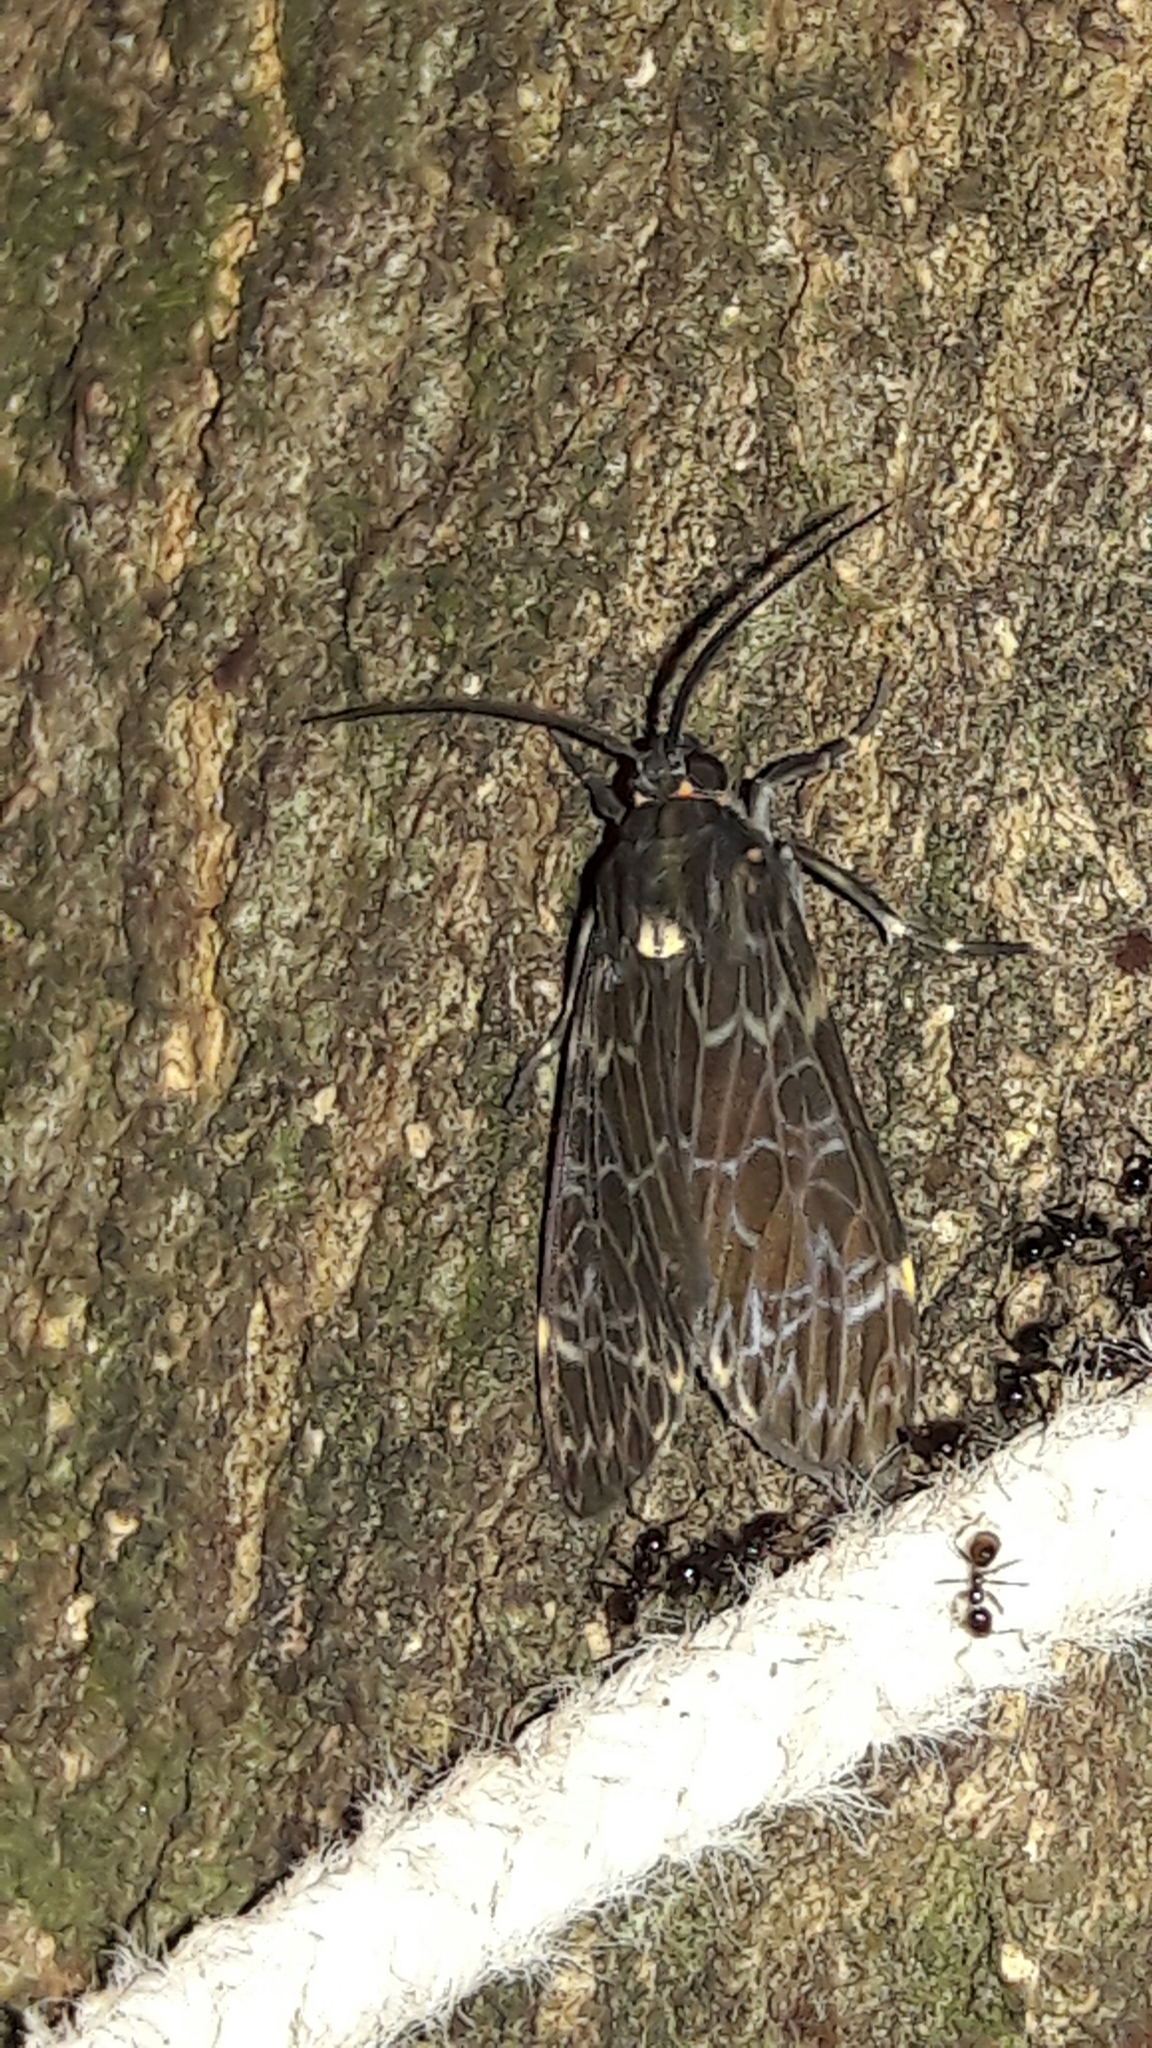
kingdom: Animalia
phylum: Arthropoda
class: Insecta
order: Lepidoptera
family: Erebidae
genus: Eucereon
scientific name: Eucereon sylvius
